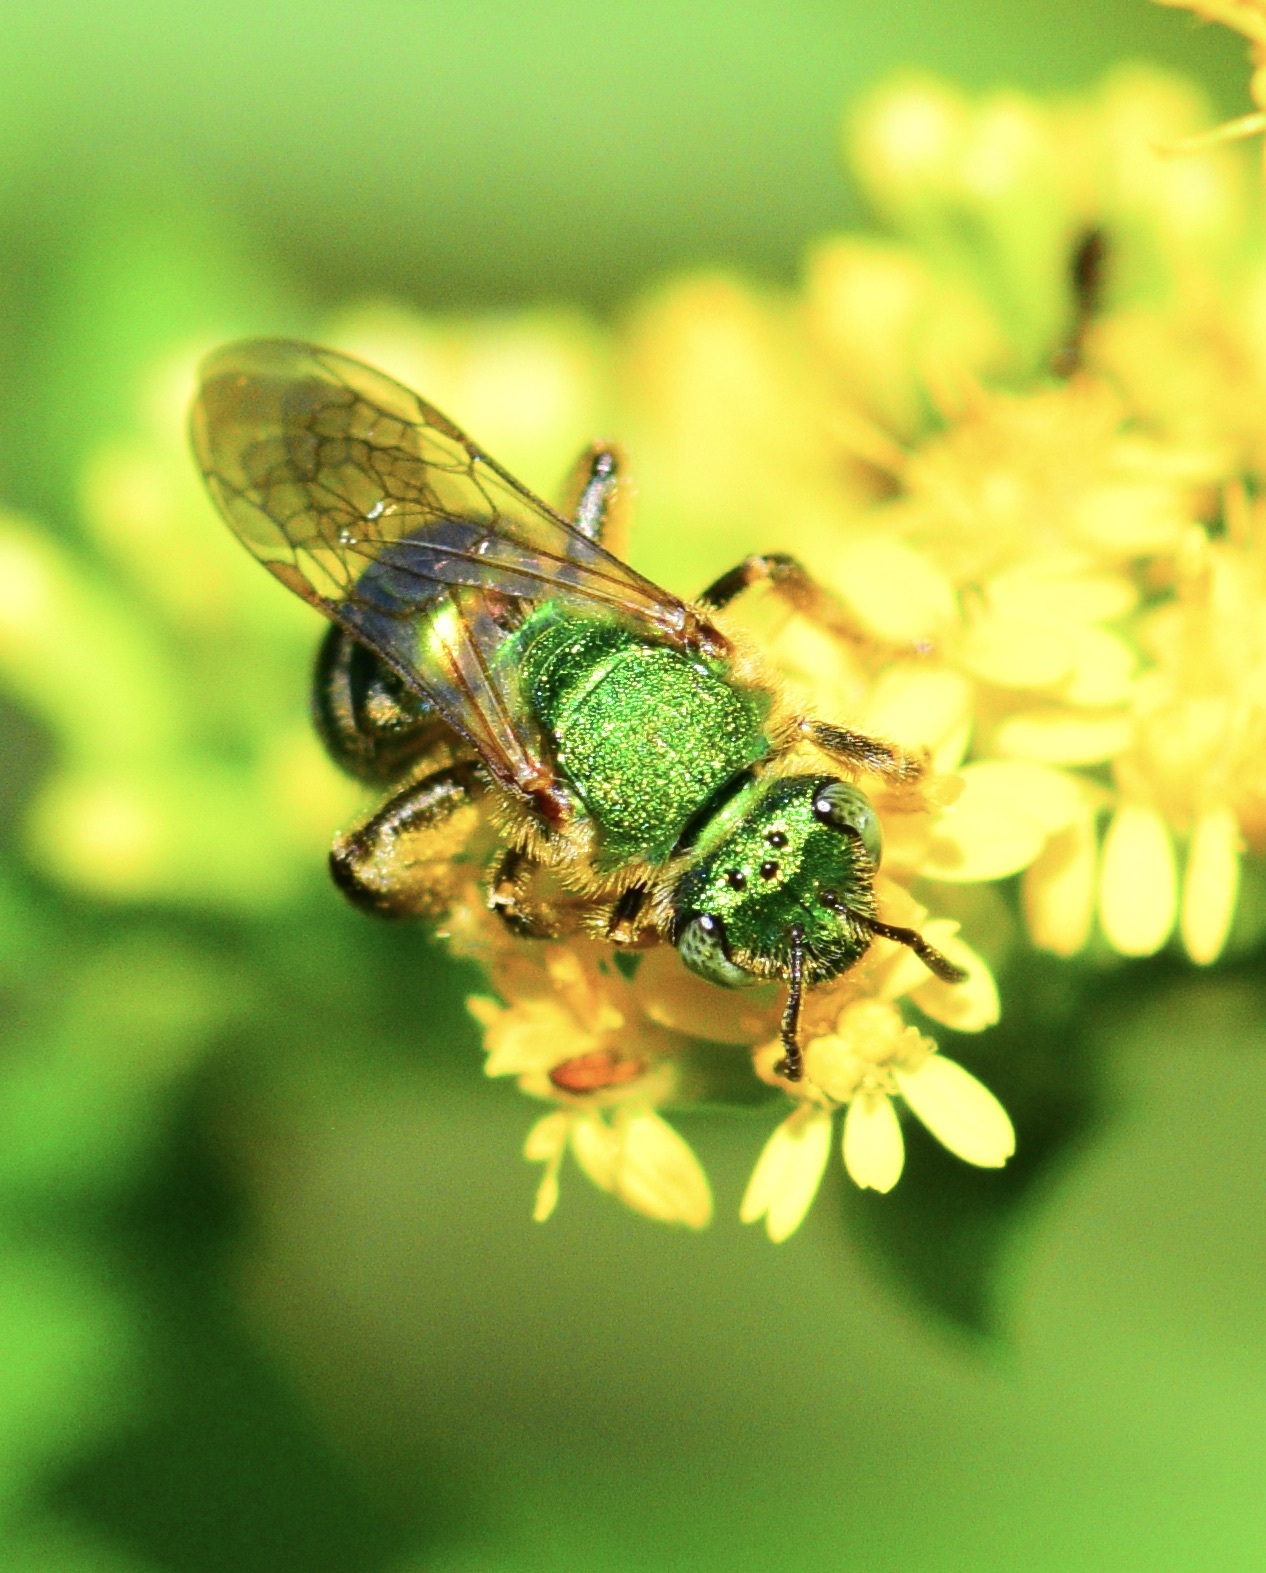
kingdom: Animalia
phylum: Arthropoda
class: Insecta
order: Hymenoptera
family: Halictidae
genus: Agapostemon
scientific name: Agapostemon sericeus
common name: Silky striped sweat bee
